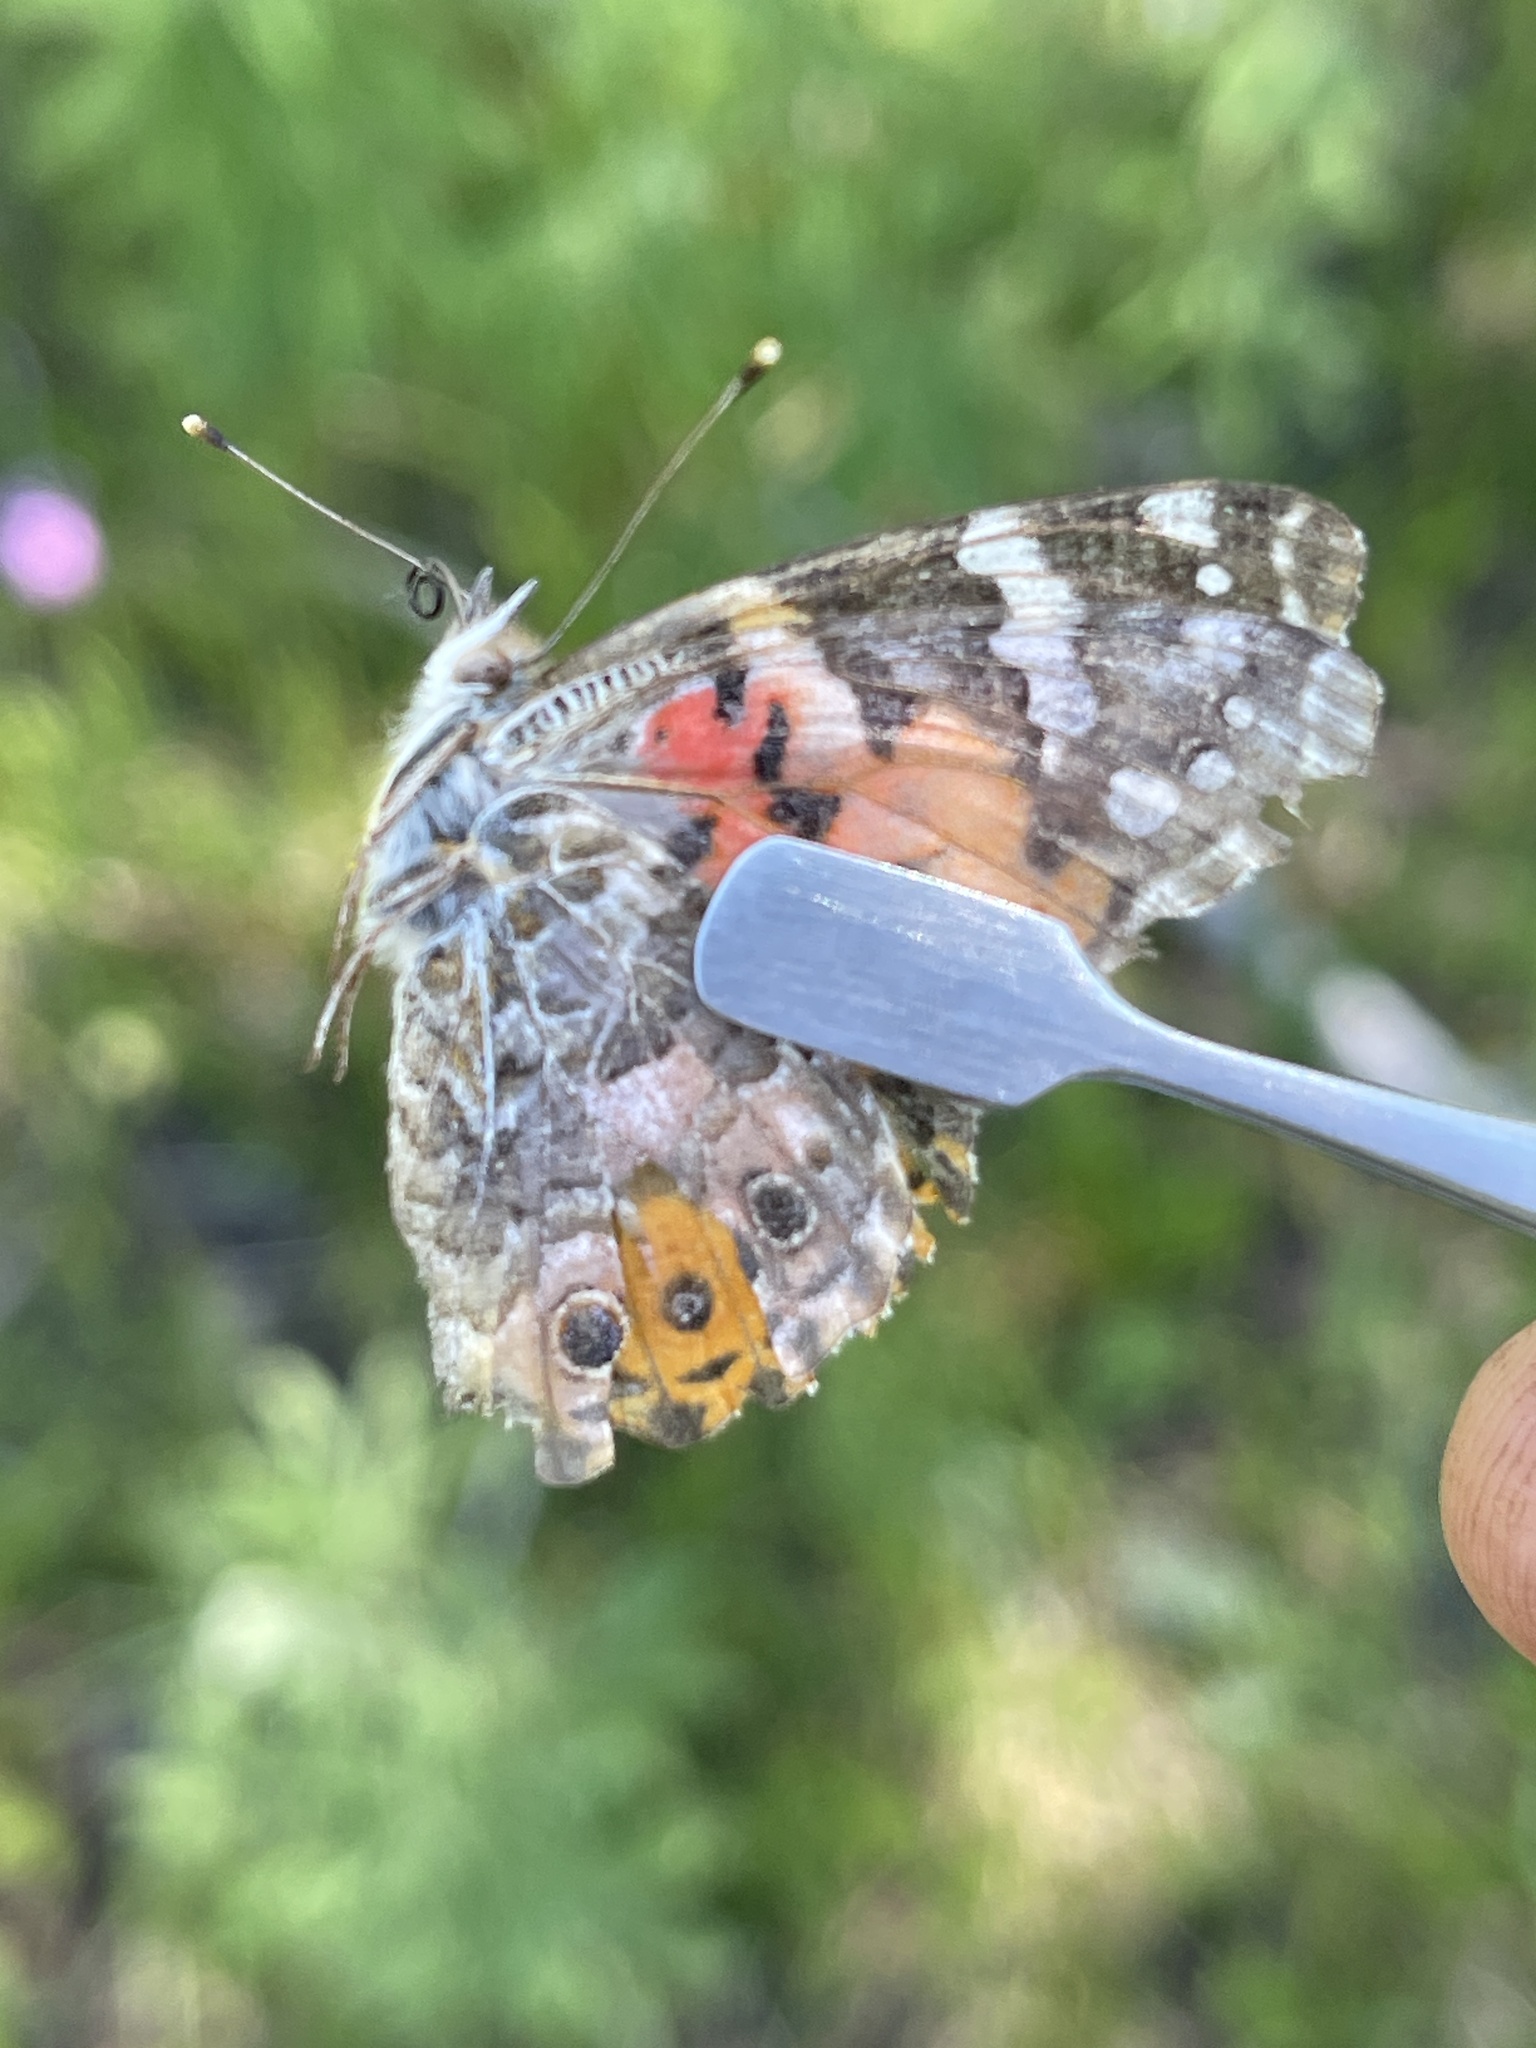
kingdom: Animalia
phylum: Arthropoda
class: Insecta
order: Lepidoptera
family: Nymphalidae
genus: Vanessa
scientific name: Vanessa cardui
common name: Painted lady
